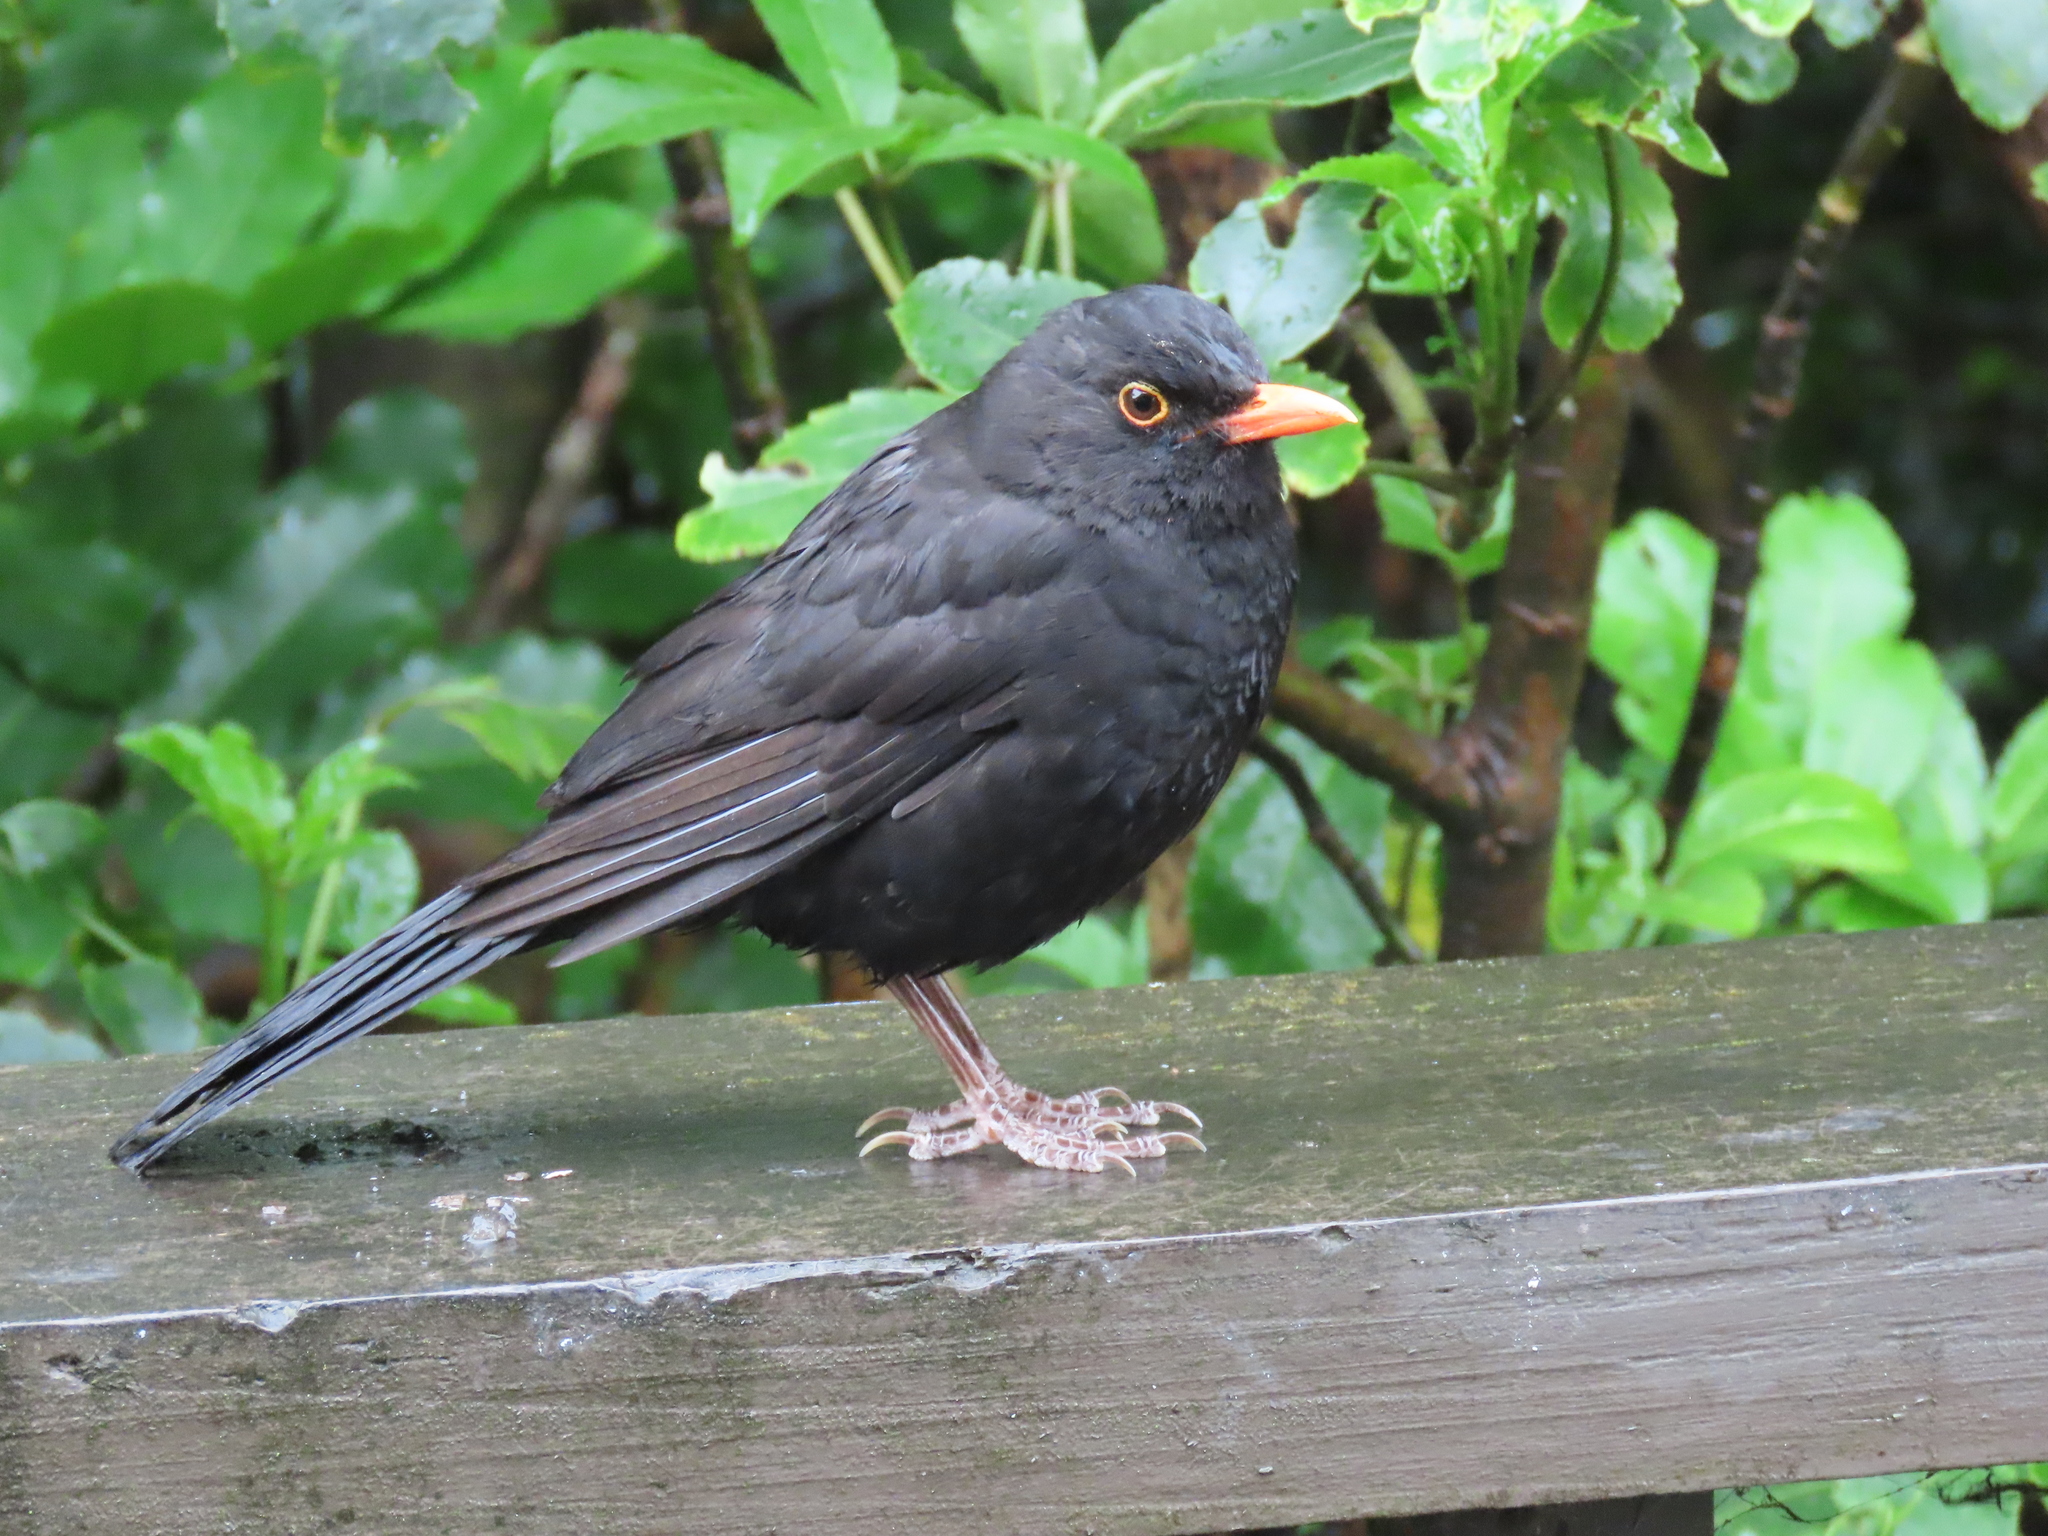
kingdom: Animalia
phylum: Chordata
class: Aves
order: Passeriformes
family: Turdidae
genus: Turdus
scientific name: Turdus merula
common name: Common blackbird
